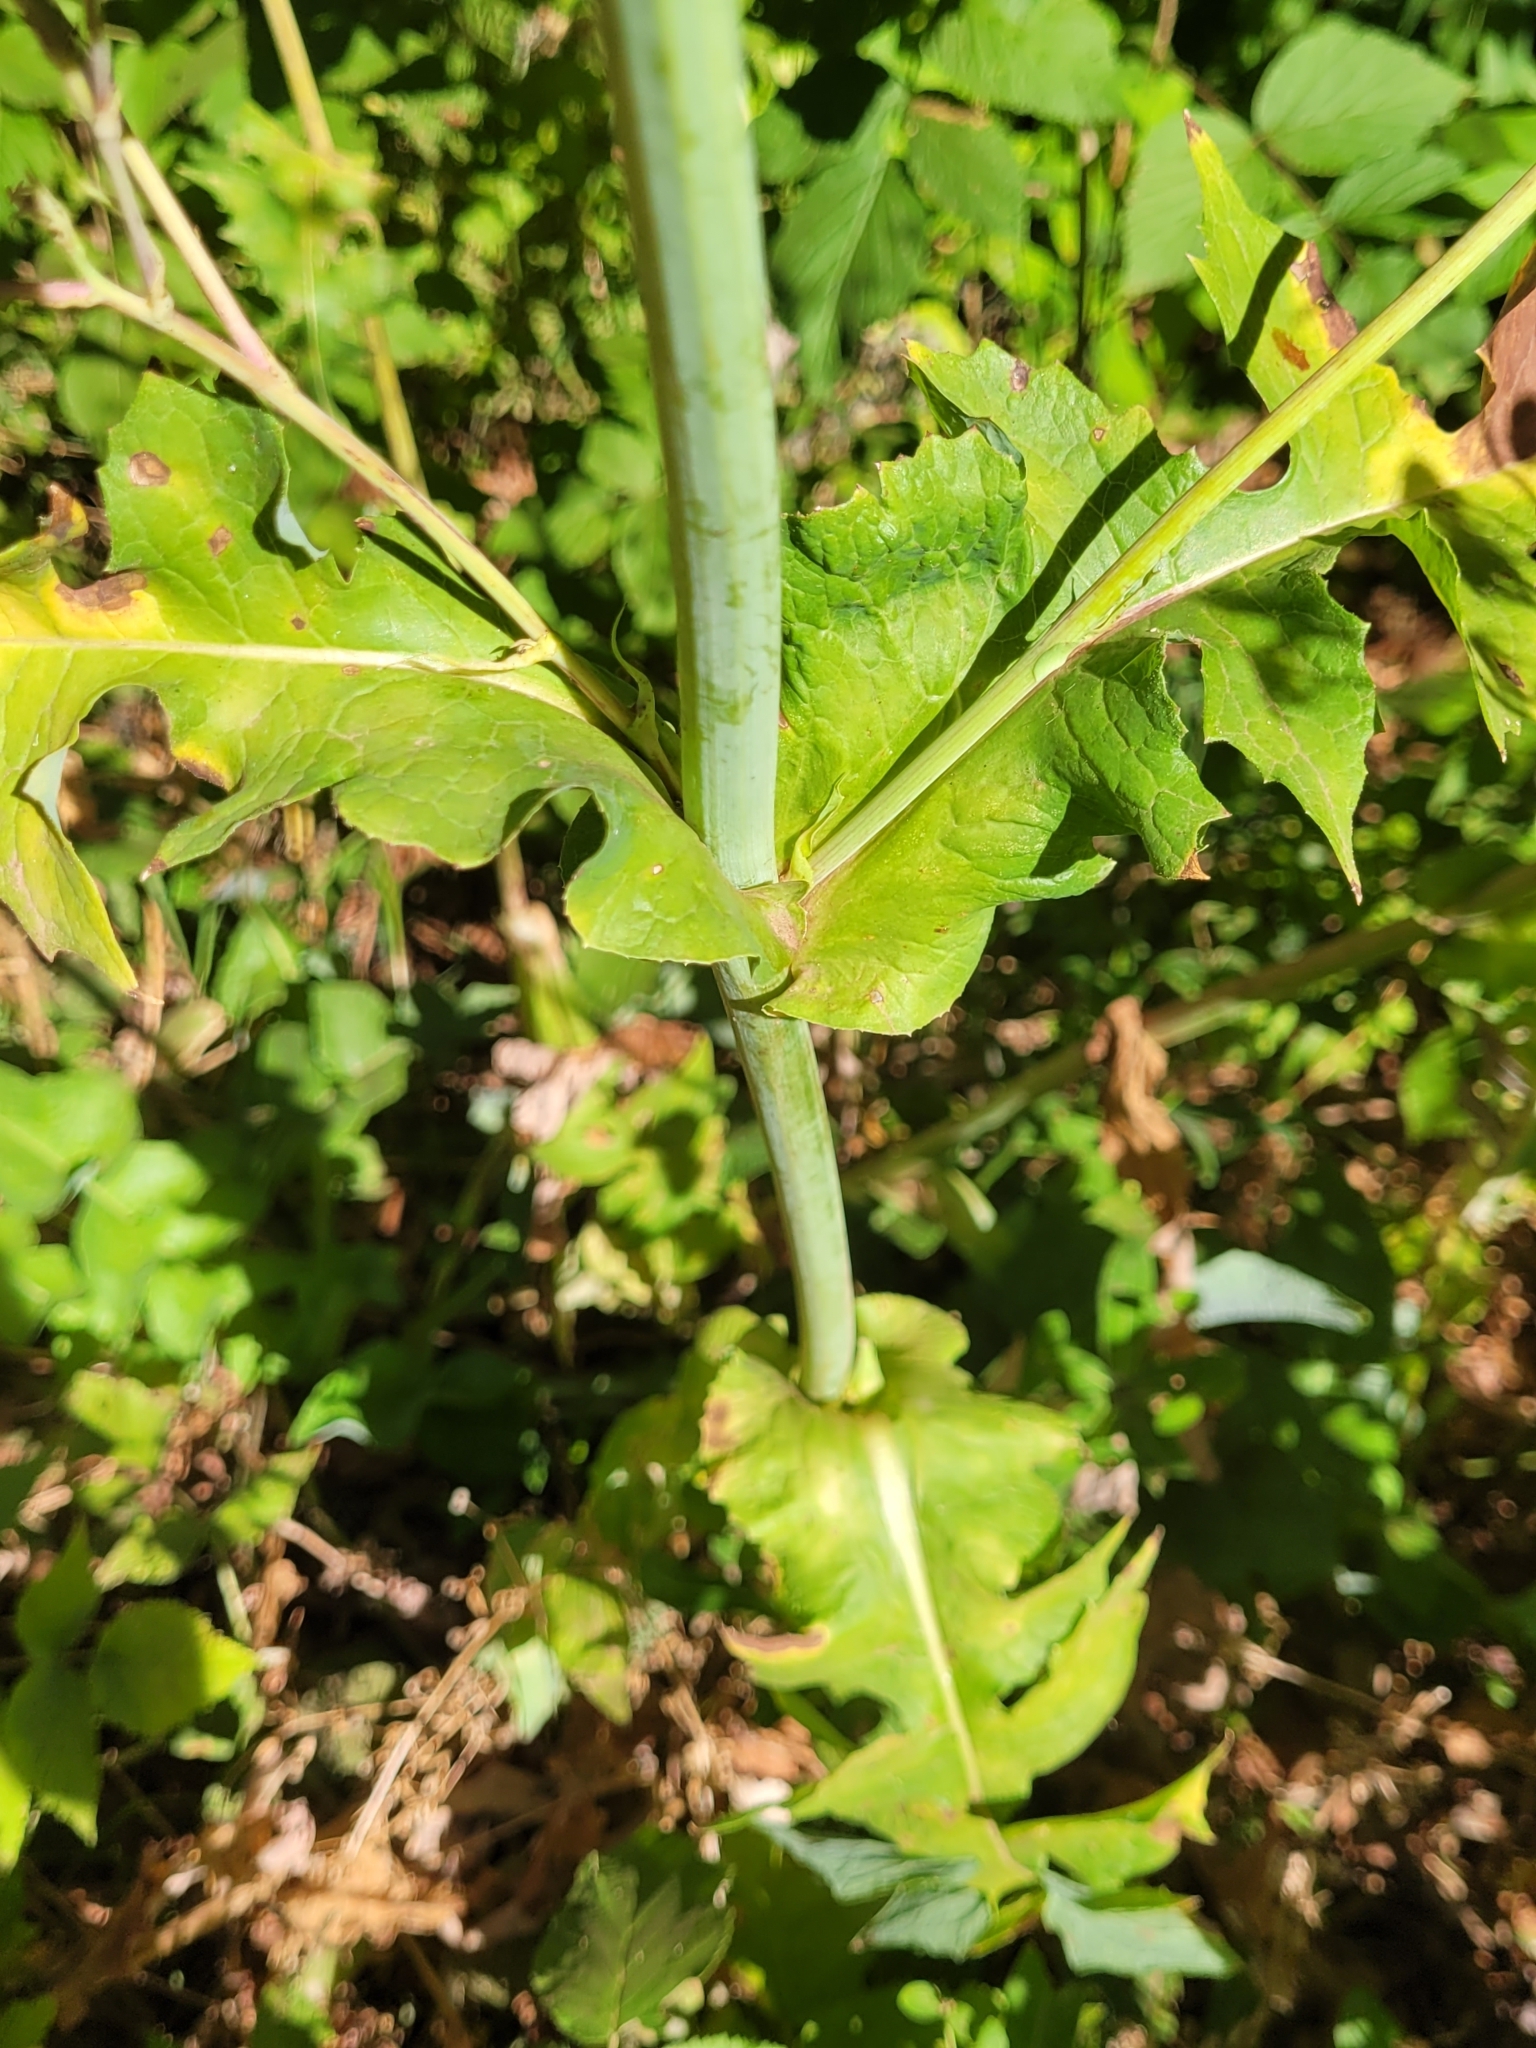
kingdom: Plantae
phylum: Tracheophyta
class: Magnoliopsida
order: Asterales
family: Asteraceae
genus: Lactuca
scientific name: Lactuca plumieri
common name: Hairless blue-sow-thistle
